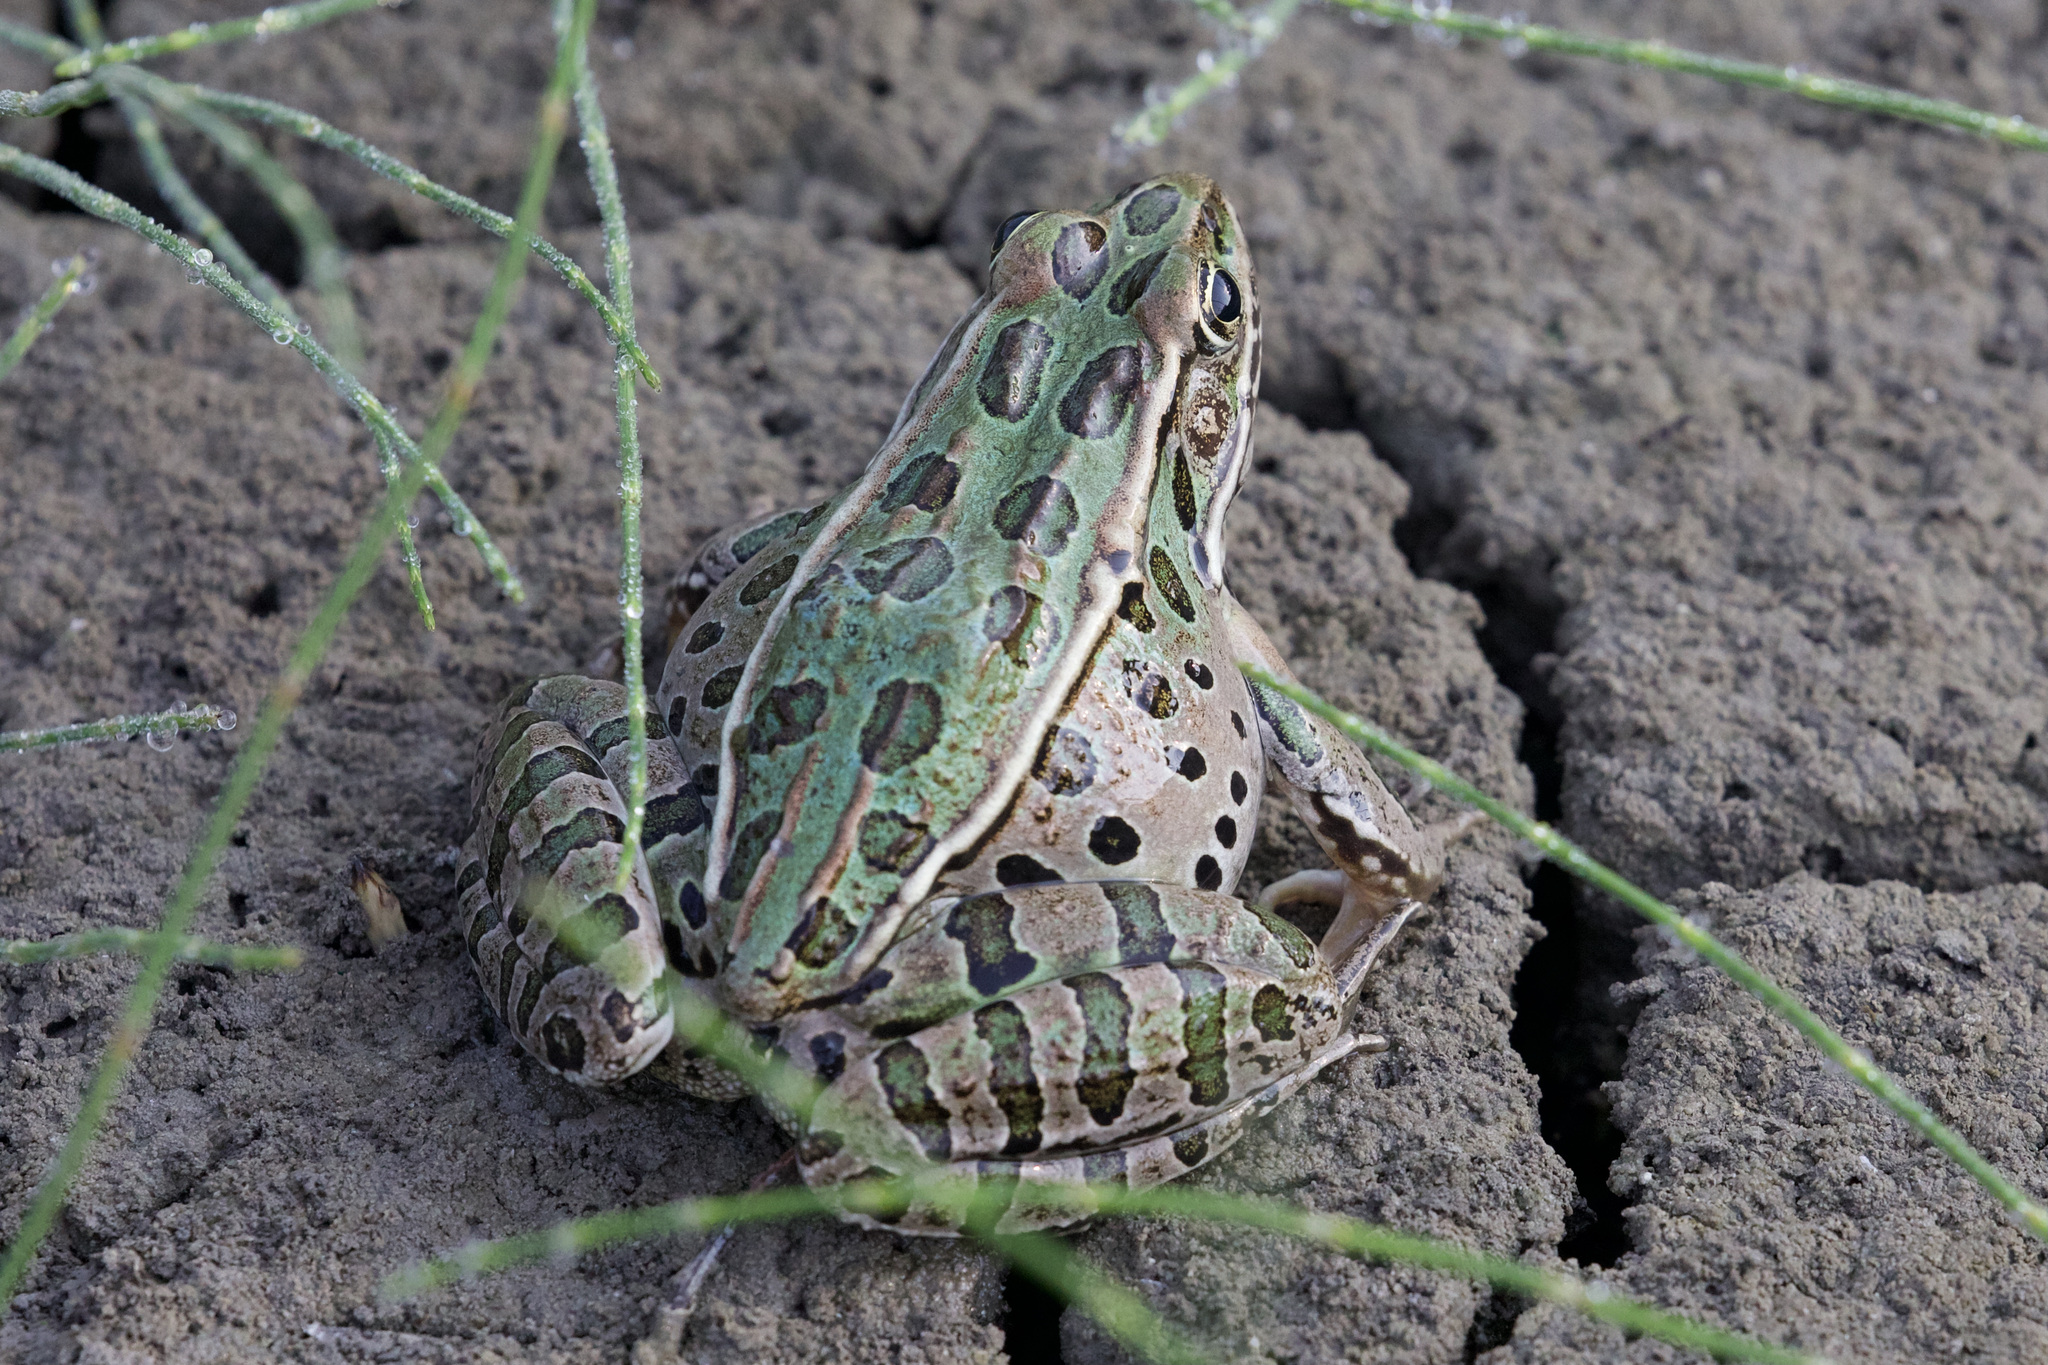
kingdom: Animalia
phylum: Chordata
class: Amphibia
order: Anura
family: Ranidae
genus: Lithobates
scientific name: Lithobates pipiens
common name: Northern leopard frog
